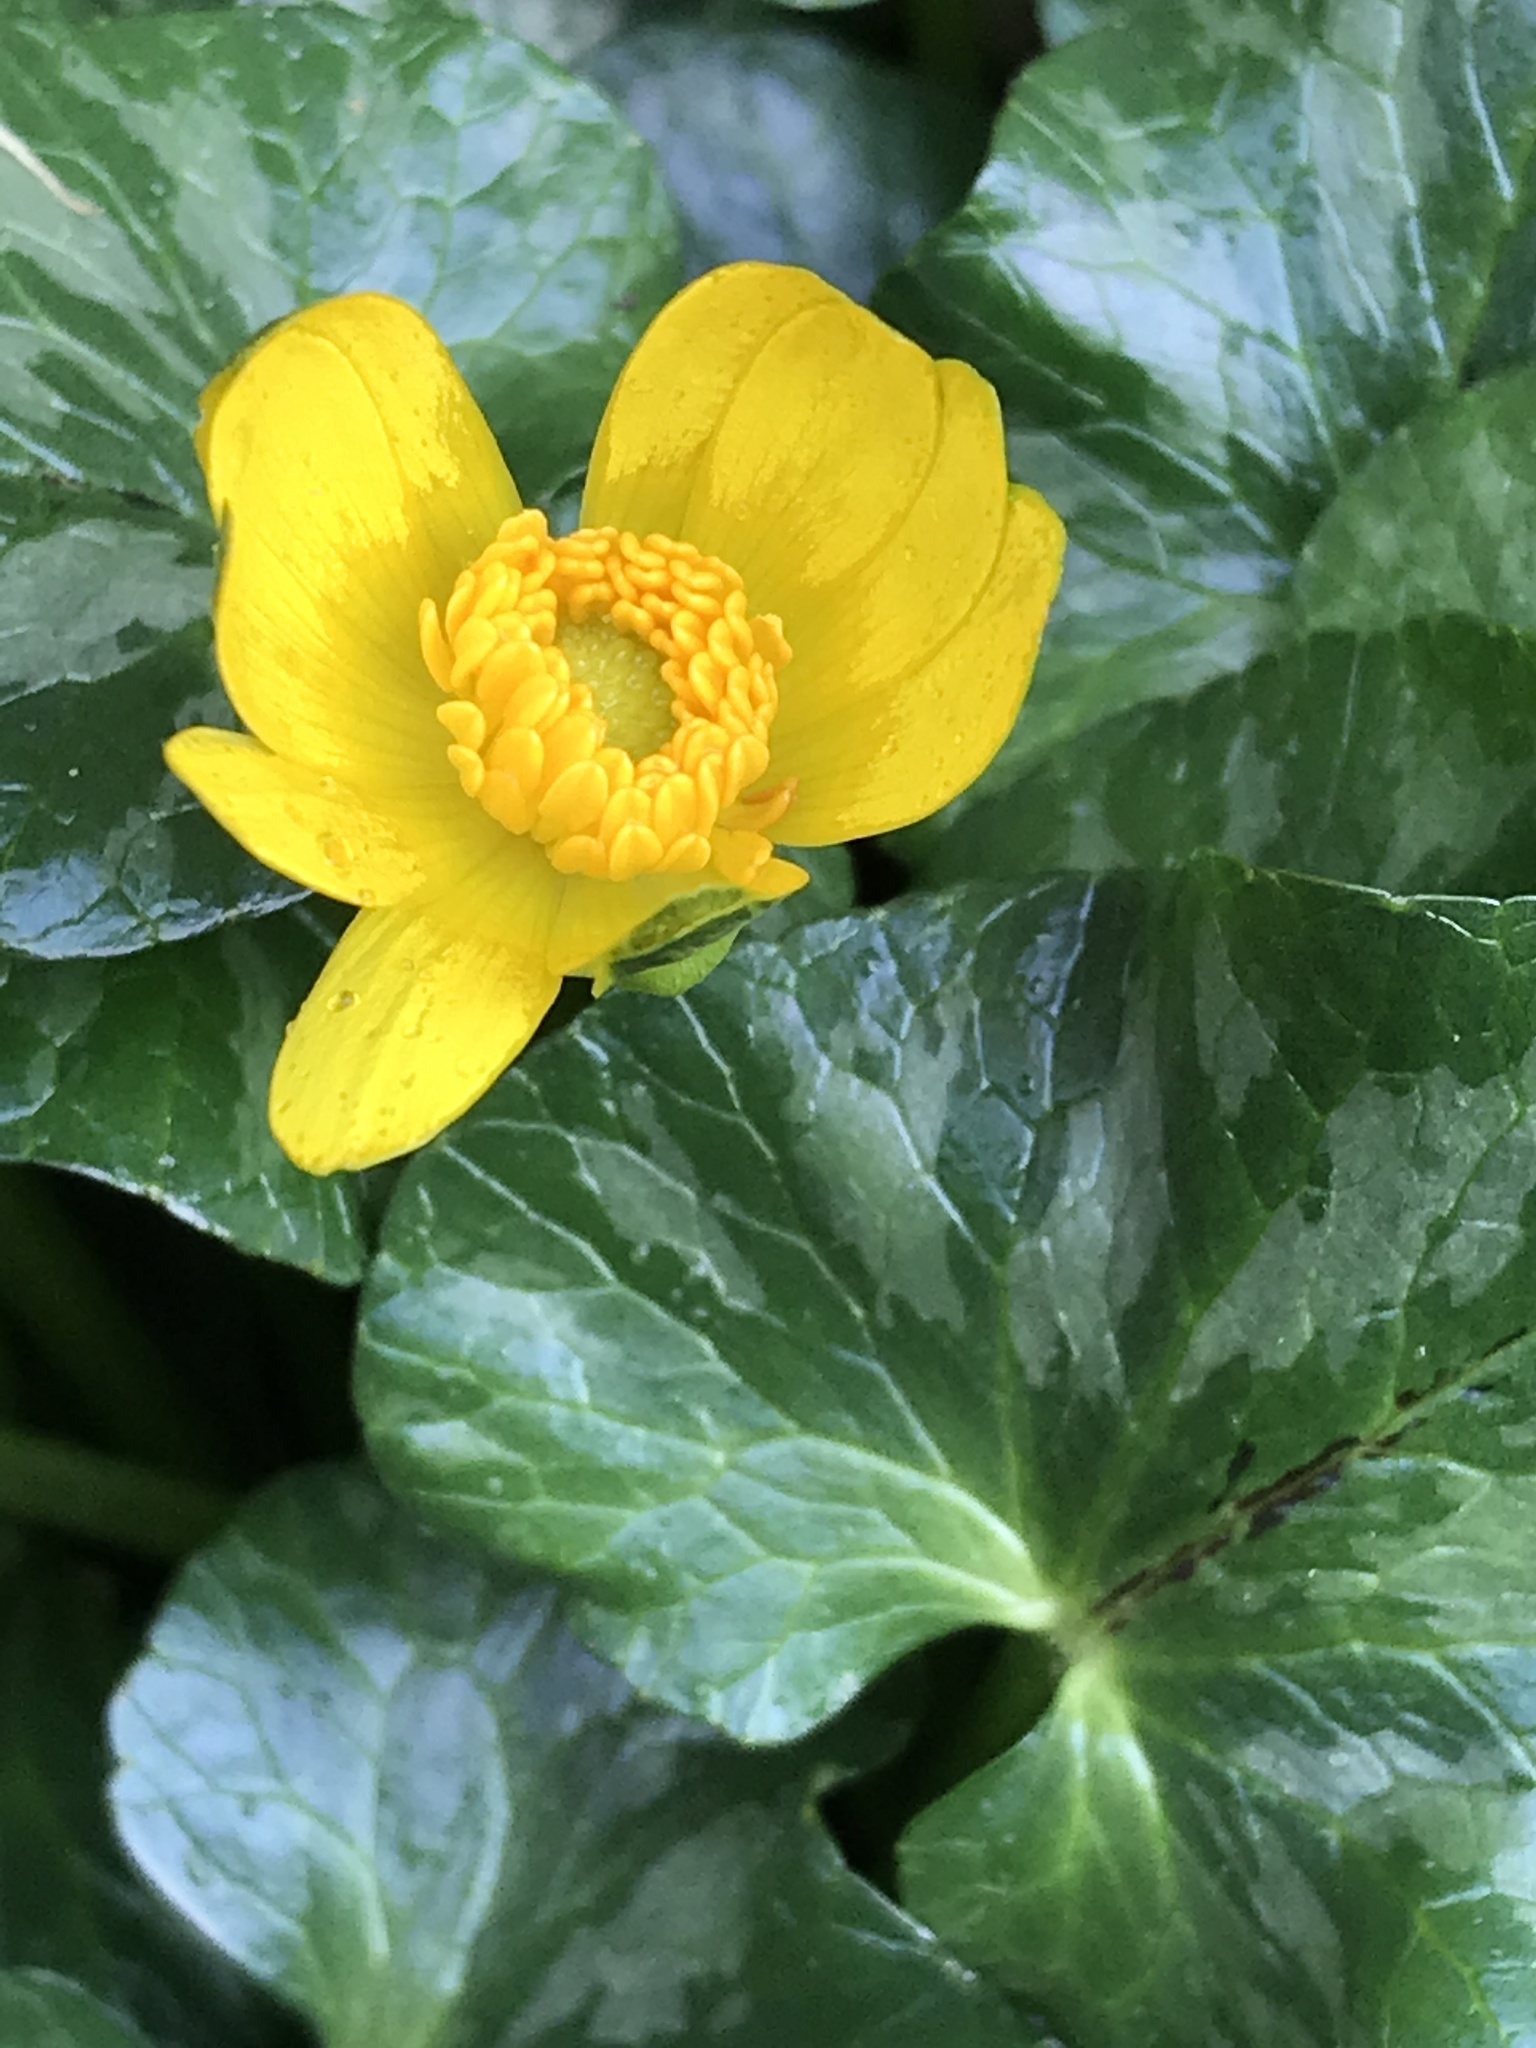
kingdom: Plantae
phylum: Tracheophyta
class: Magnoliopsida
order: Ranunculales
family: Ranunculaceae
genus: Ficaria
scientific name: Ficaria verna
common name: Lesser celandine
